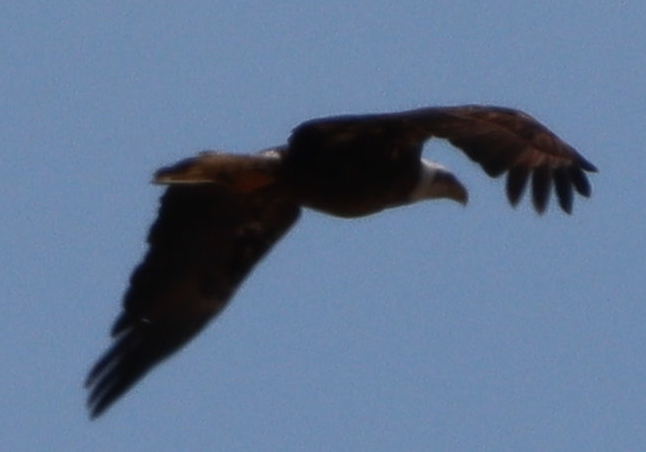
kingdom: Animalia
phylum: Chordata
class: Aves
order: Accipitriformes
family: Accipitridae
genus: Haliaeetus
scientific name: Haliaeetus leucocephalus
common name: Bald eagle
